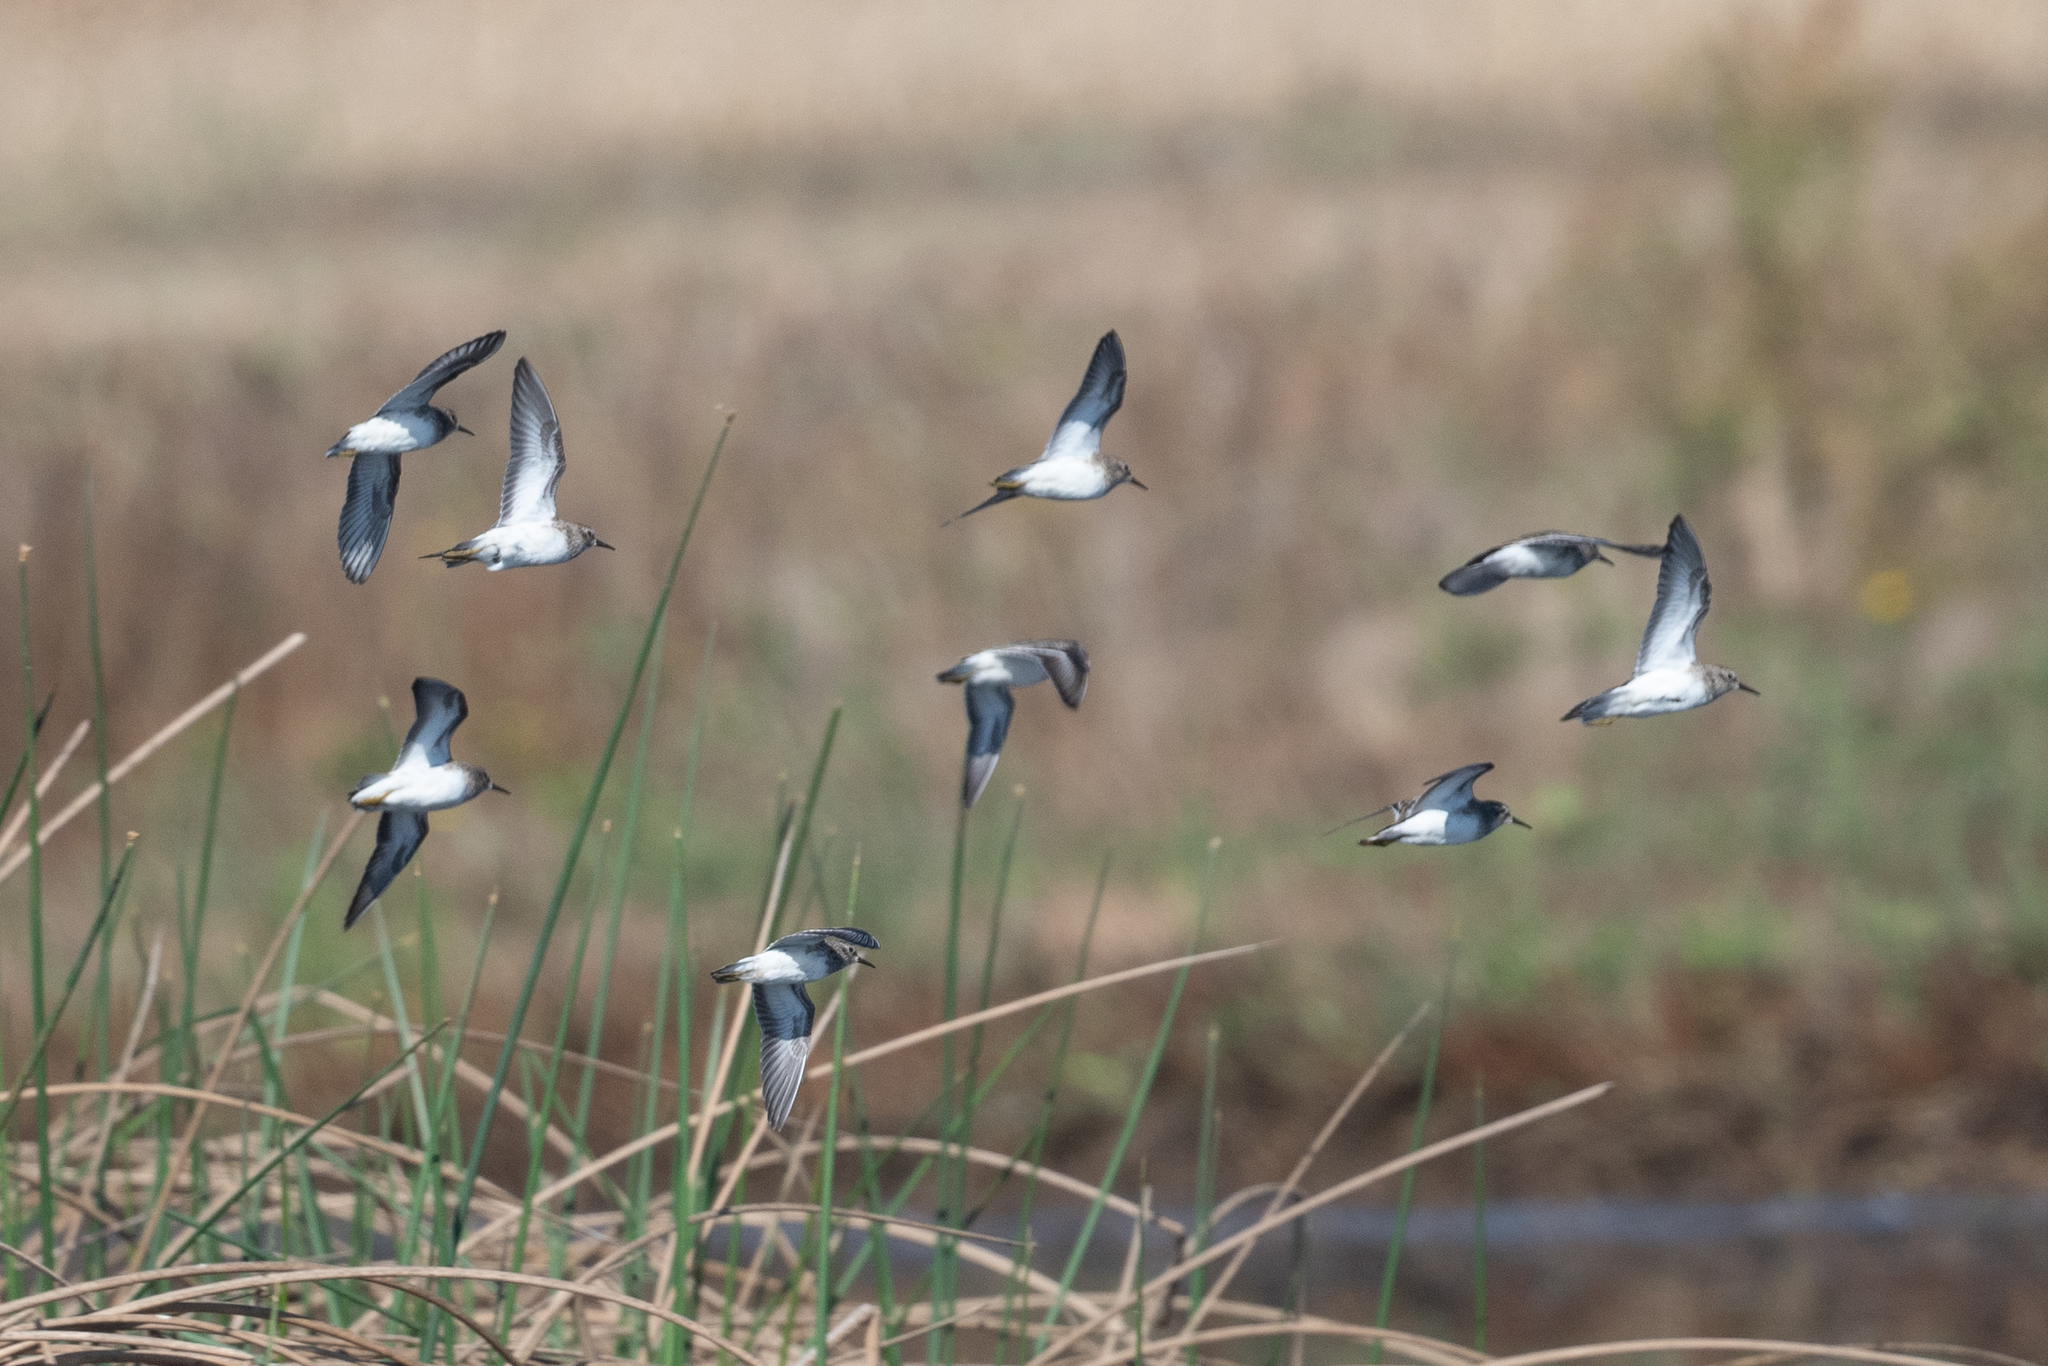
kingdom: Animalia
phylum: Chordata
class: Aves
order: Charadriiformes
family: Scolopacidae
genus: Calidris
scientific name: Calidris minutilla
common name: Least sandpiper
